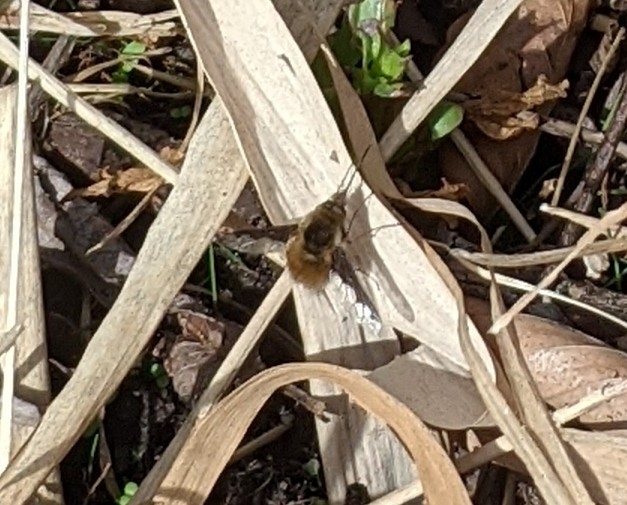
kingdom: Animalia
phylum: Arthropoda
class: Insecta
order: Diptera
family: Bombyliidae
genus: Bombylius
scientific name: Bombylius major
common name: Bee fly
